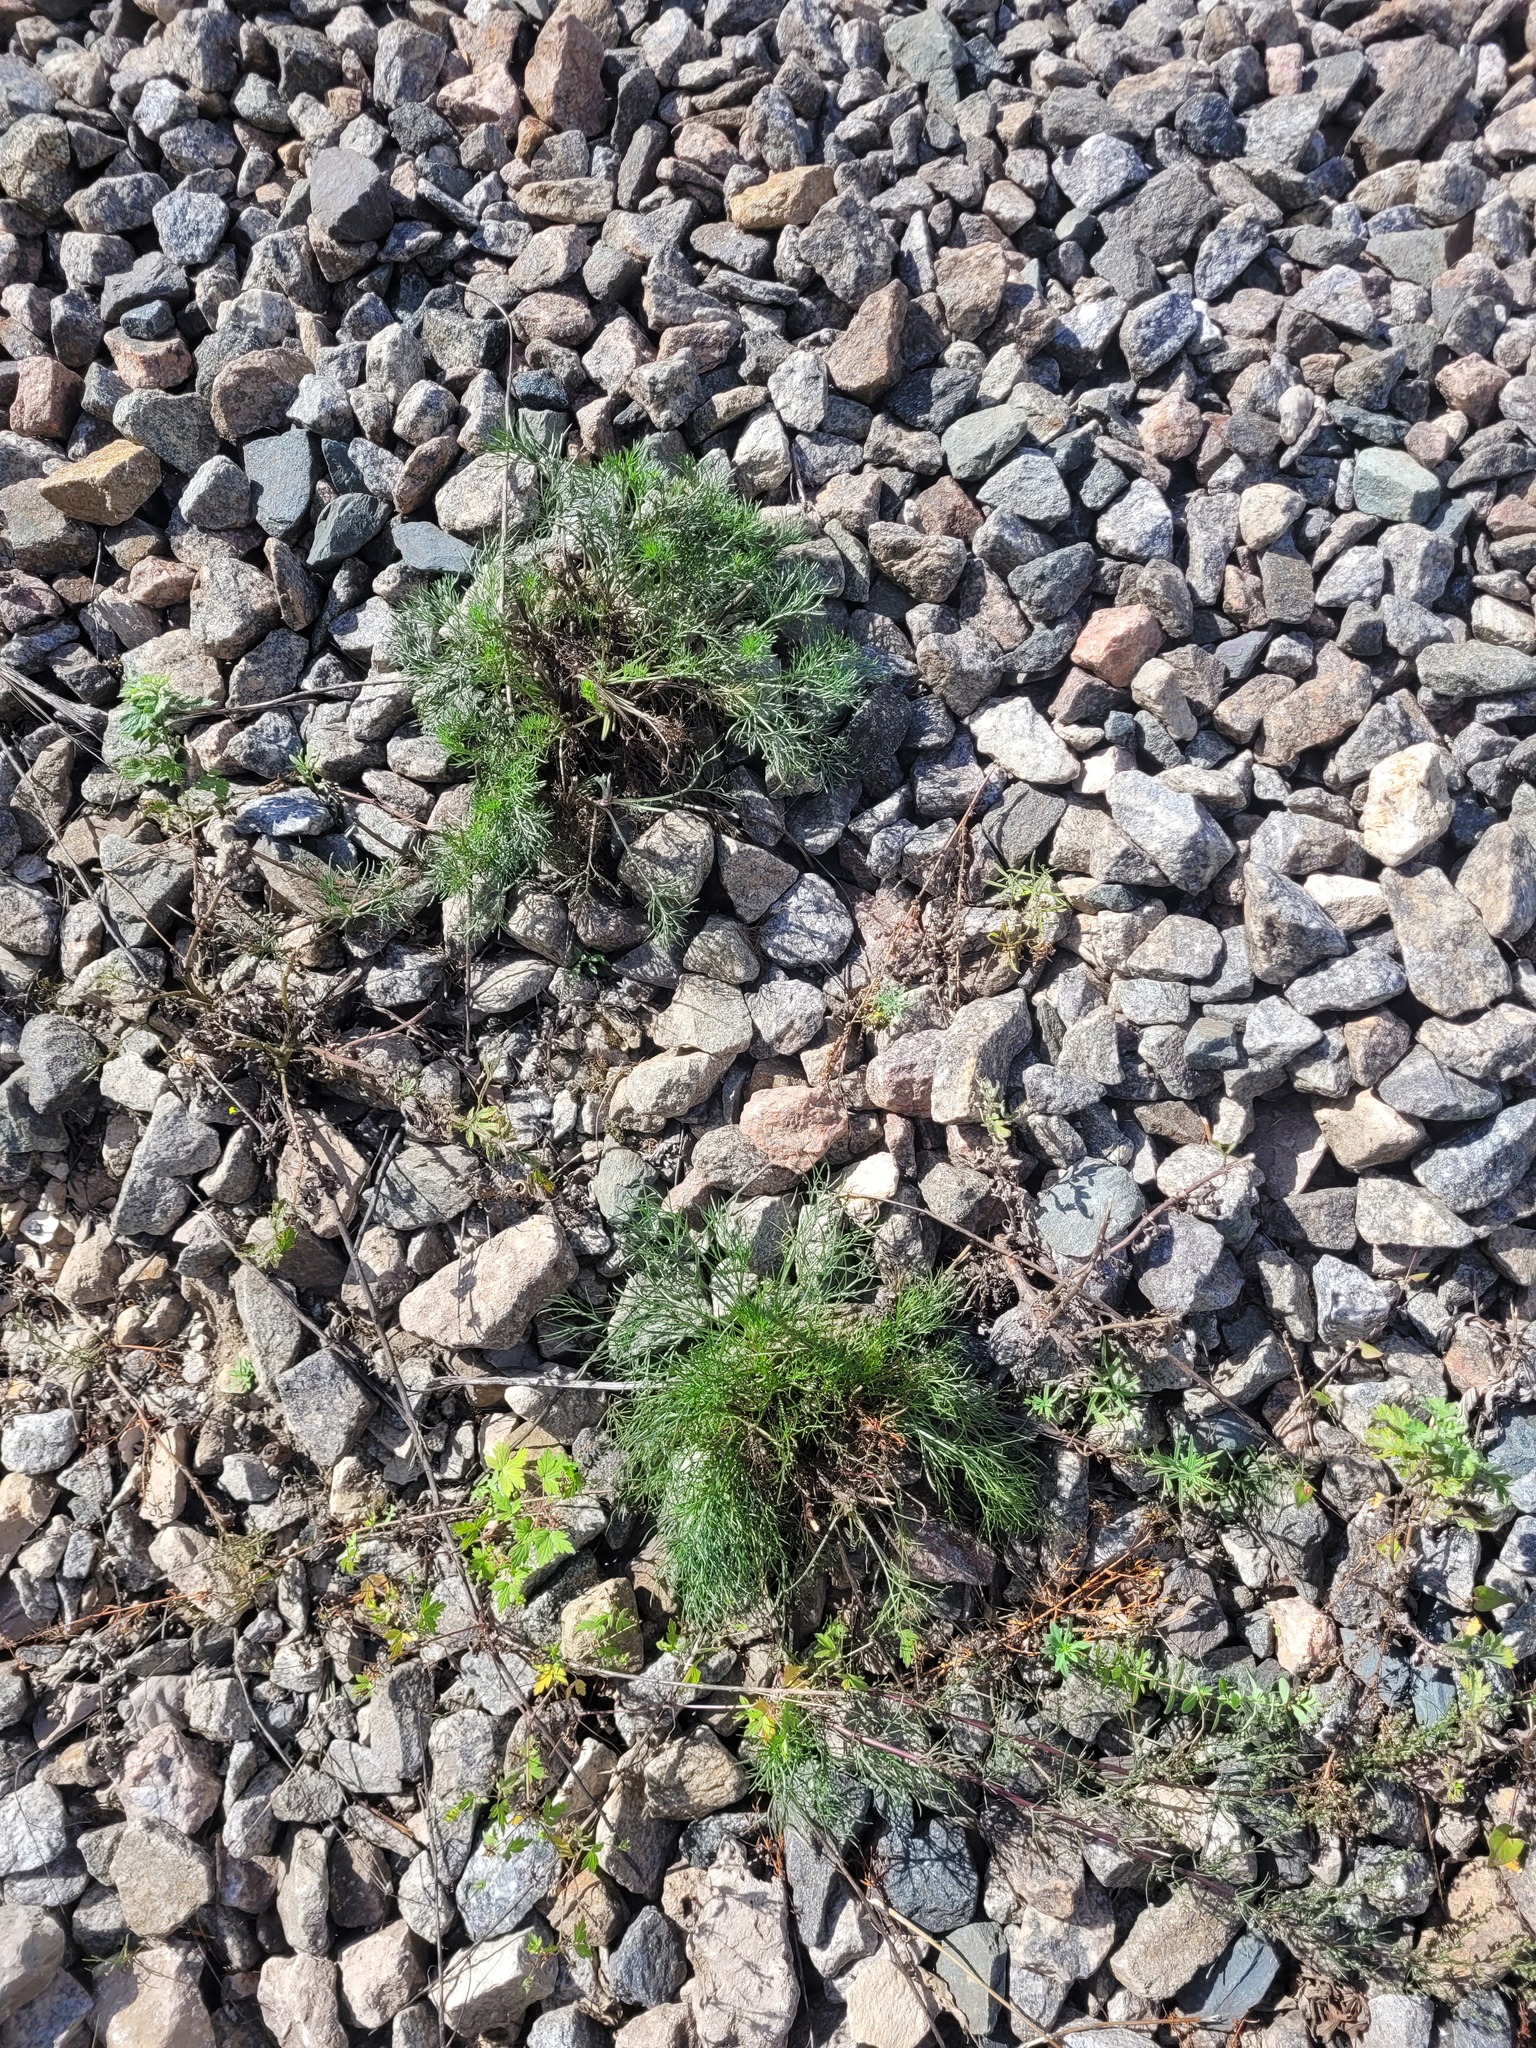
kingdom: Plantae
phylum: Tracheophyta
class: Magnoliopsida
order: Asterales
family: Asteraceae
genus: Artemisia
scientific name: Artemisia campestris
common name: Field wormwood
